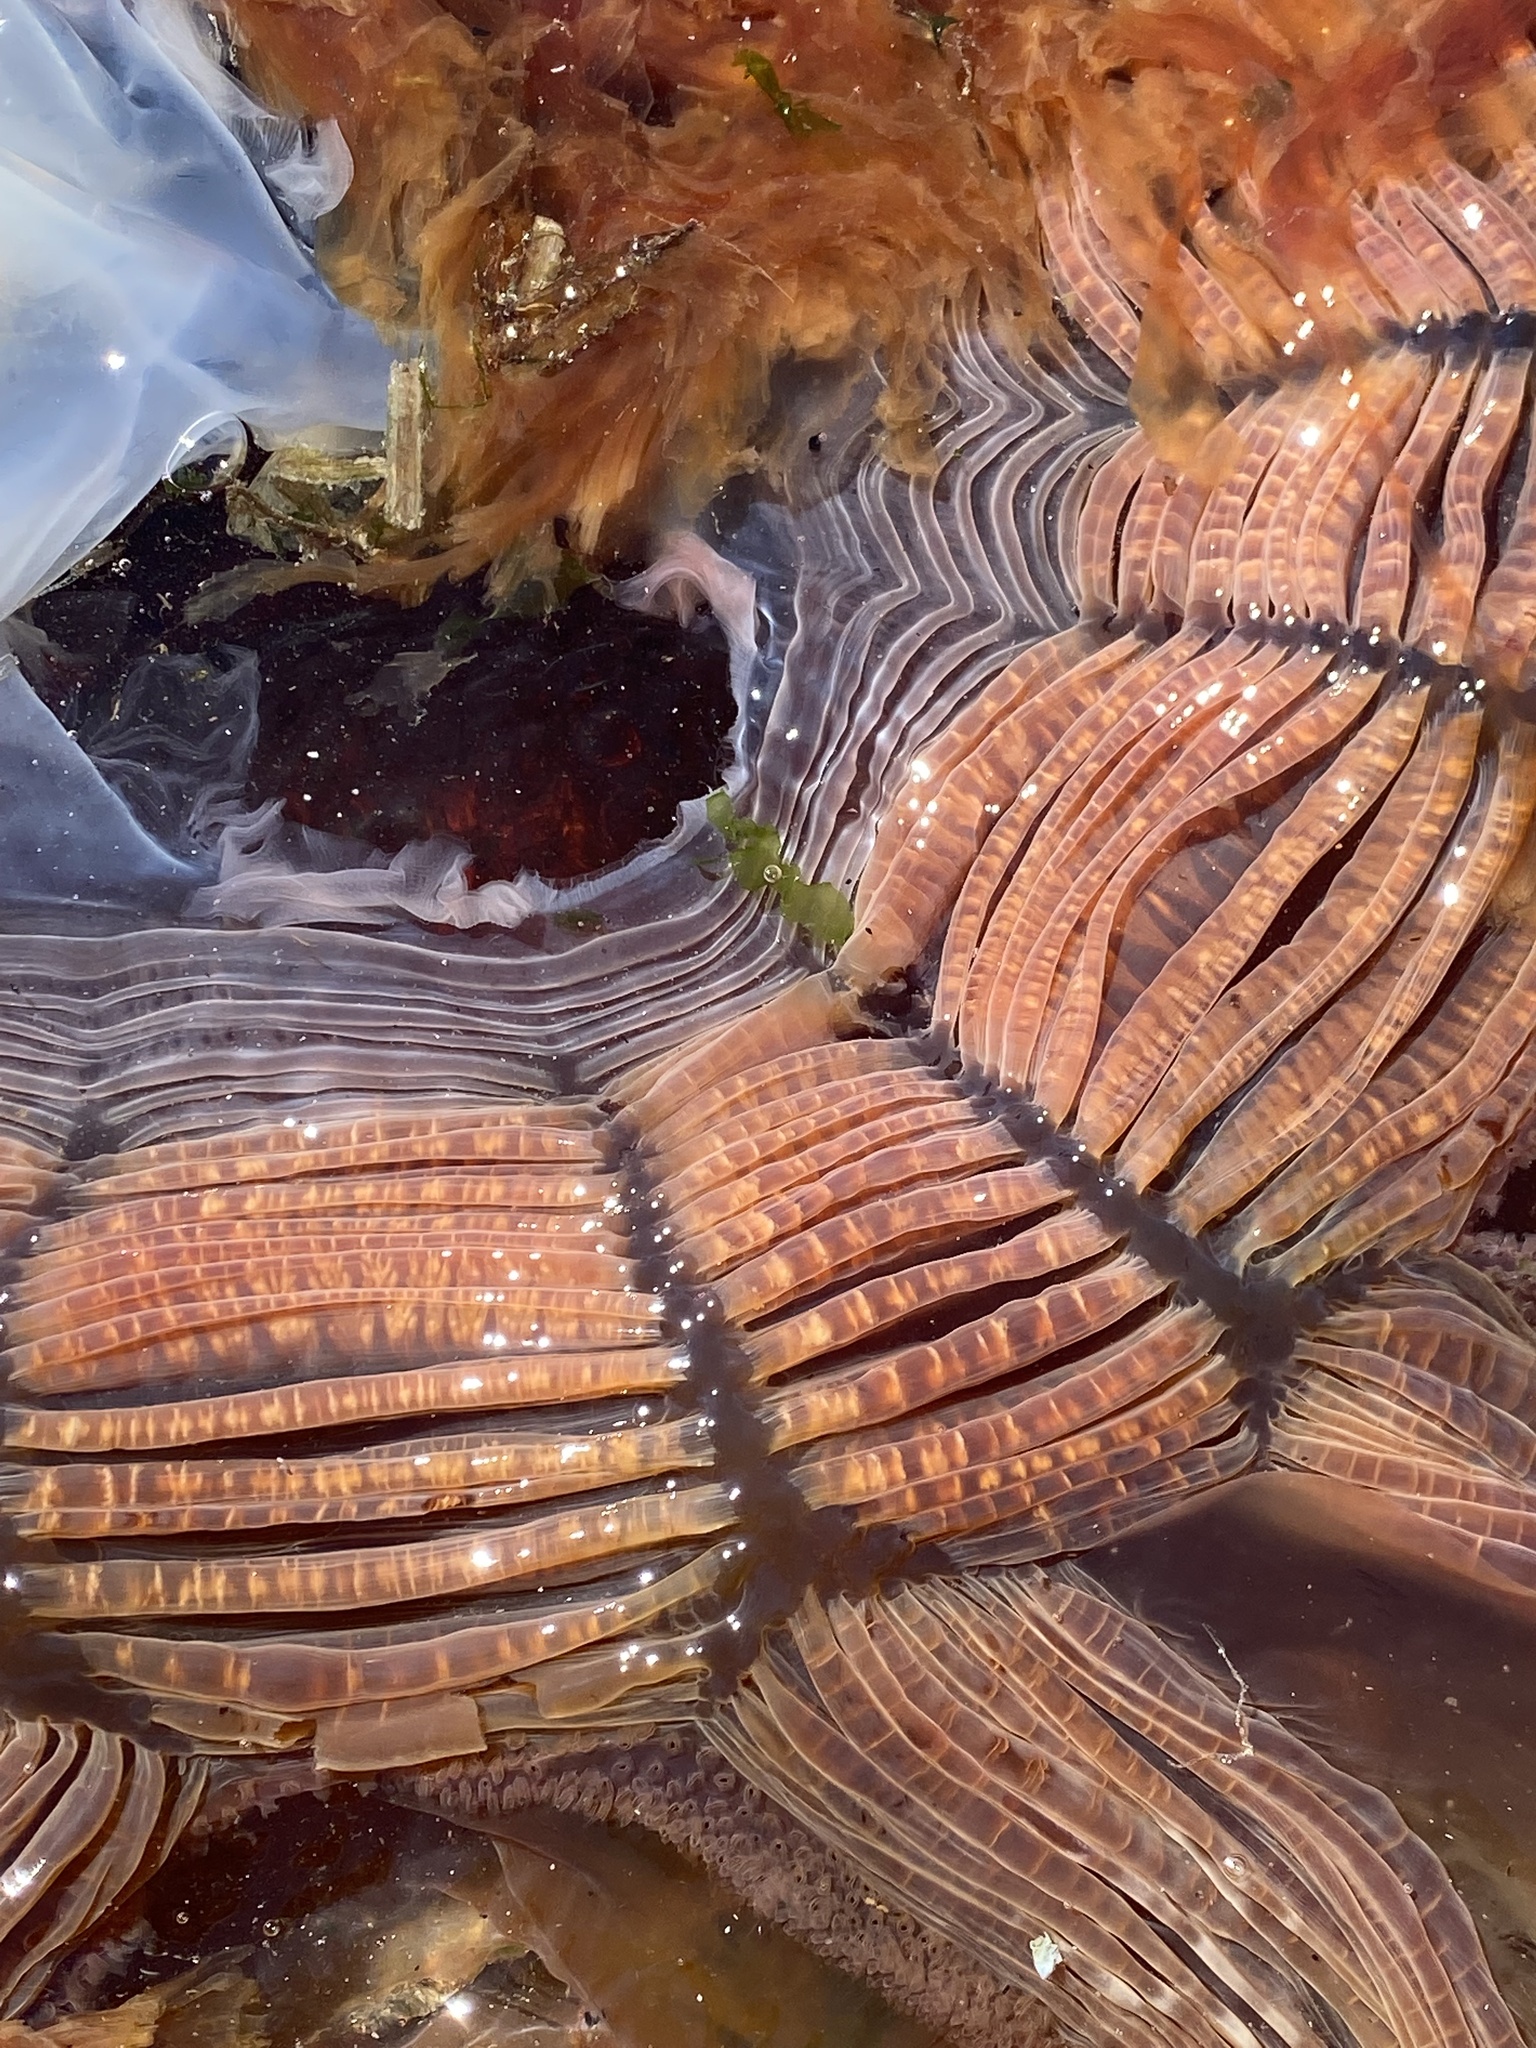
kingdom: Animalia
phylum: Cnidaria
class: Scyphozoa
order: Semaeostomeae
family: Cyaneidae
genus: Cyanea
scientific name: Cyanea ferruginea
